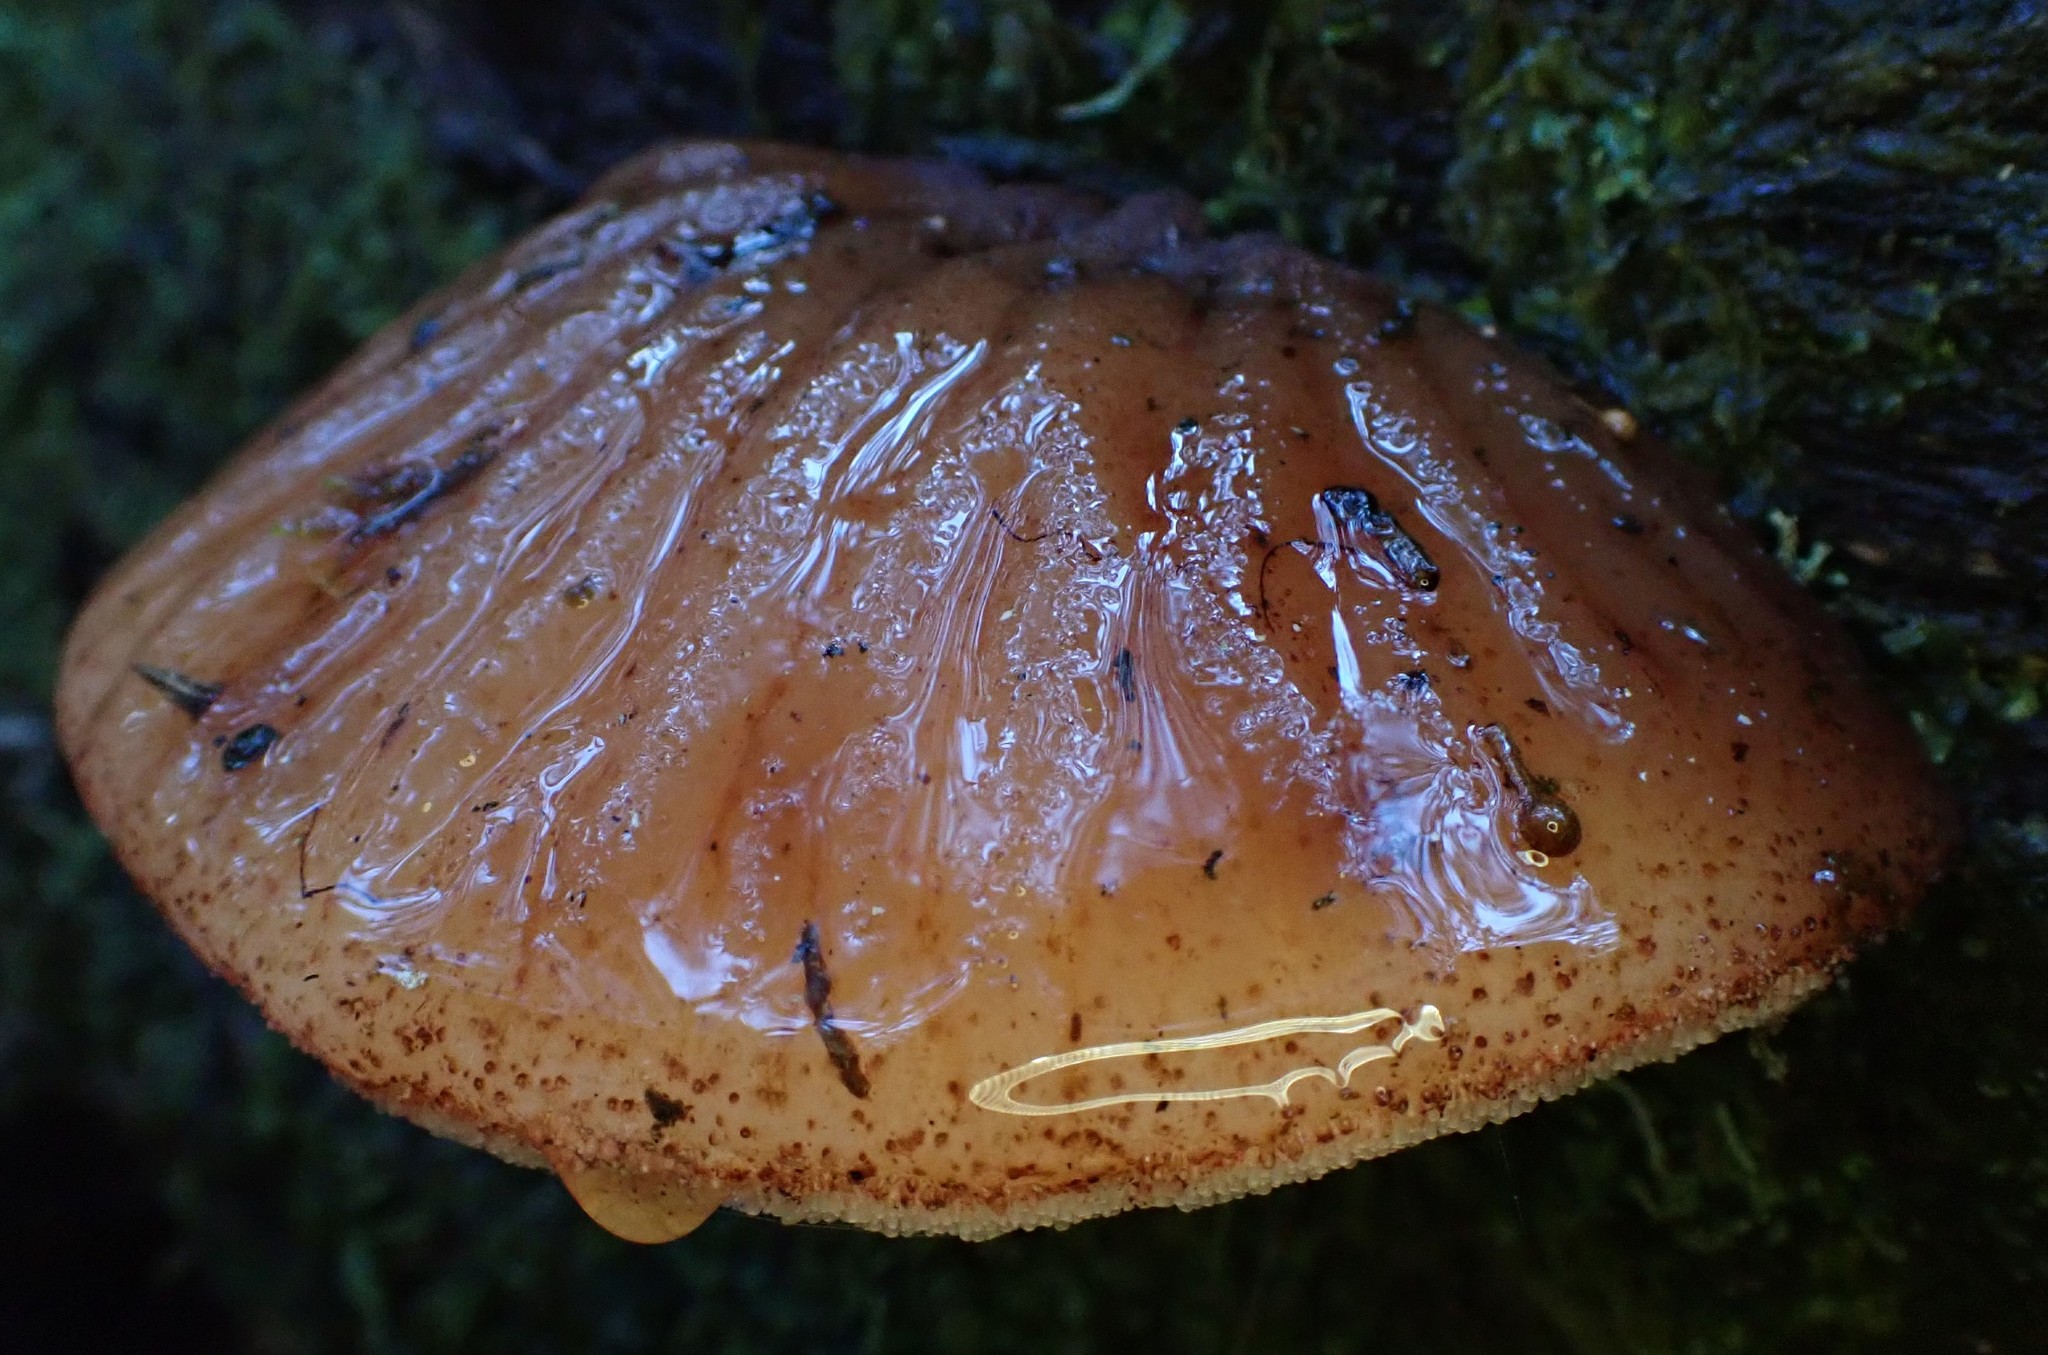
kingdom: Fungi
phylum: Basidiomycota
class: Agaricomycetes
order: Agaricales
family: Fistulinaceae
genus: Fistulina
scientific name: Fistulina spiculifera
